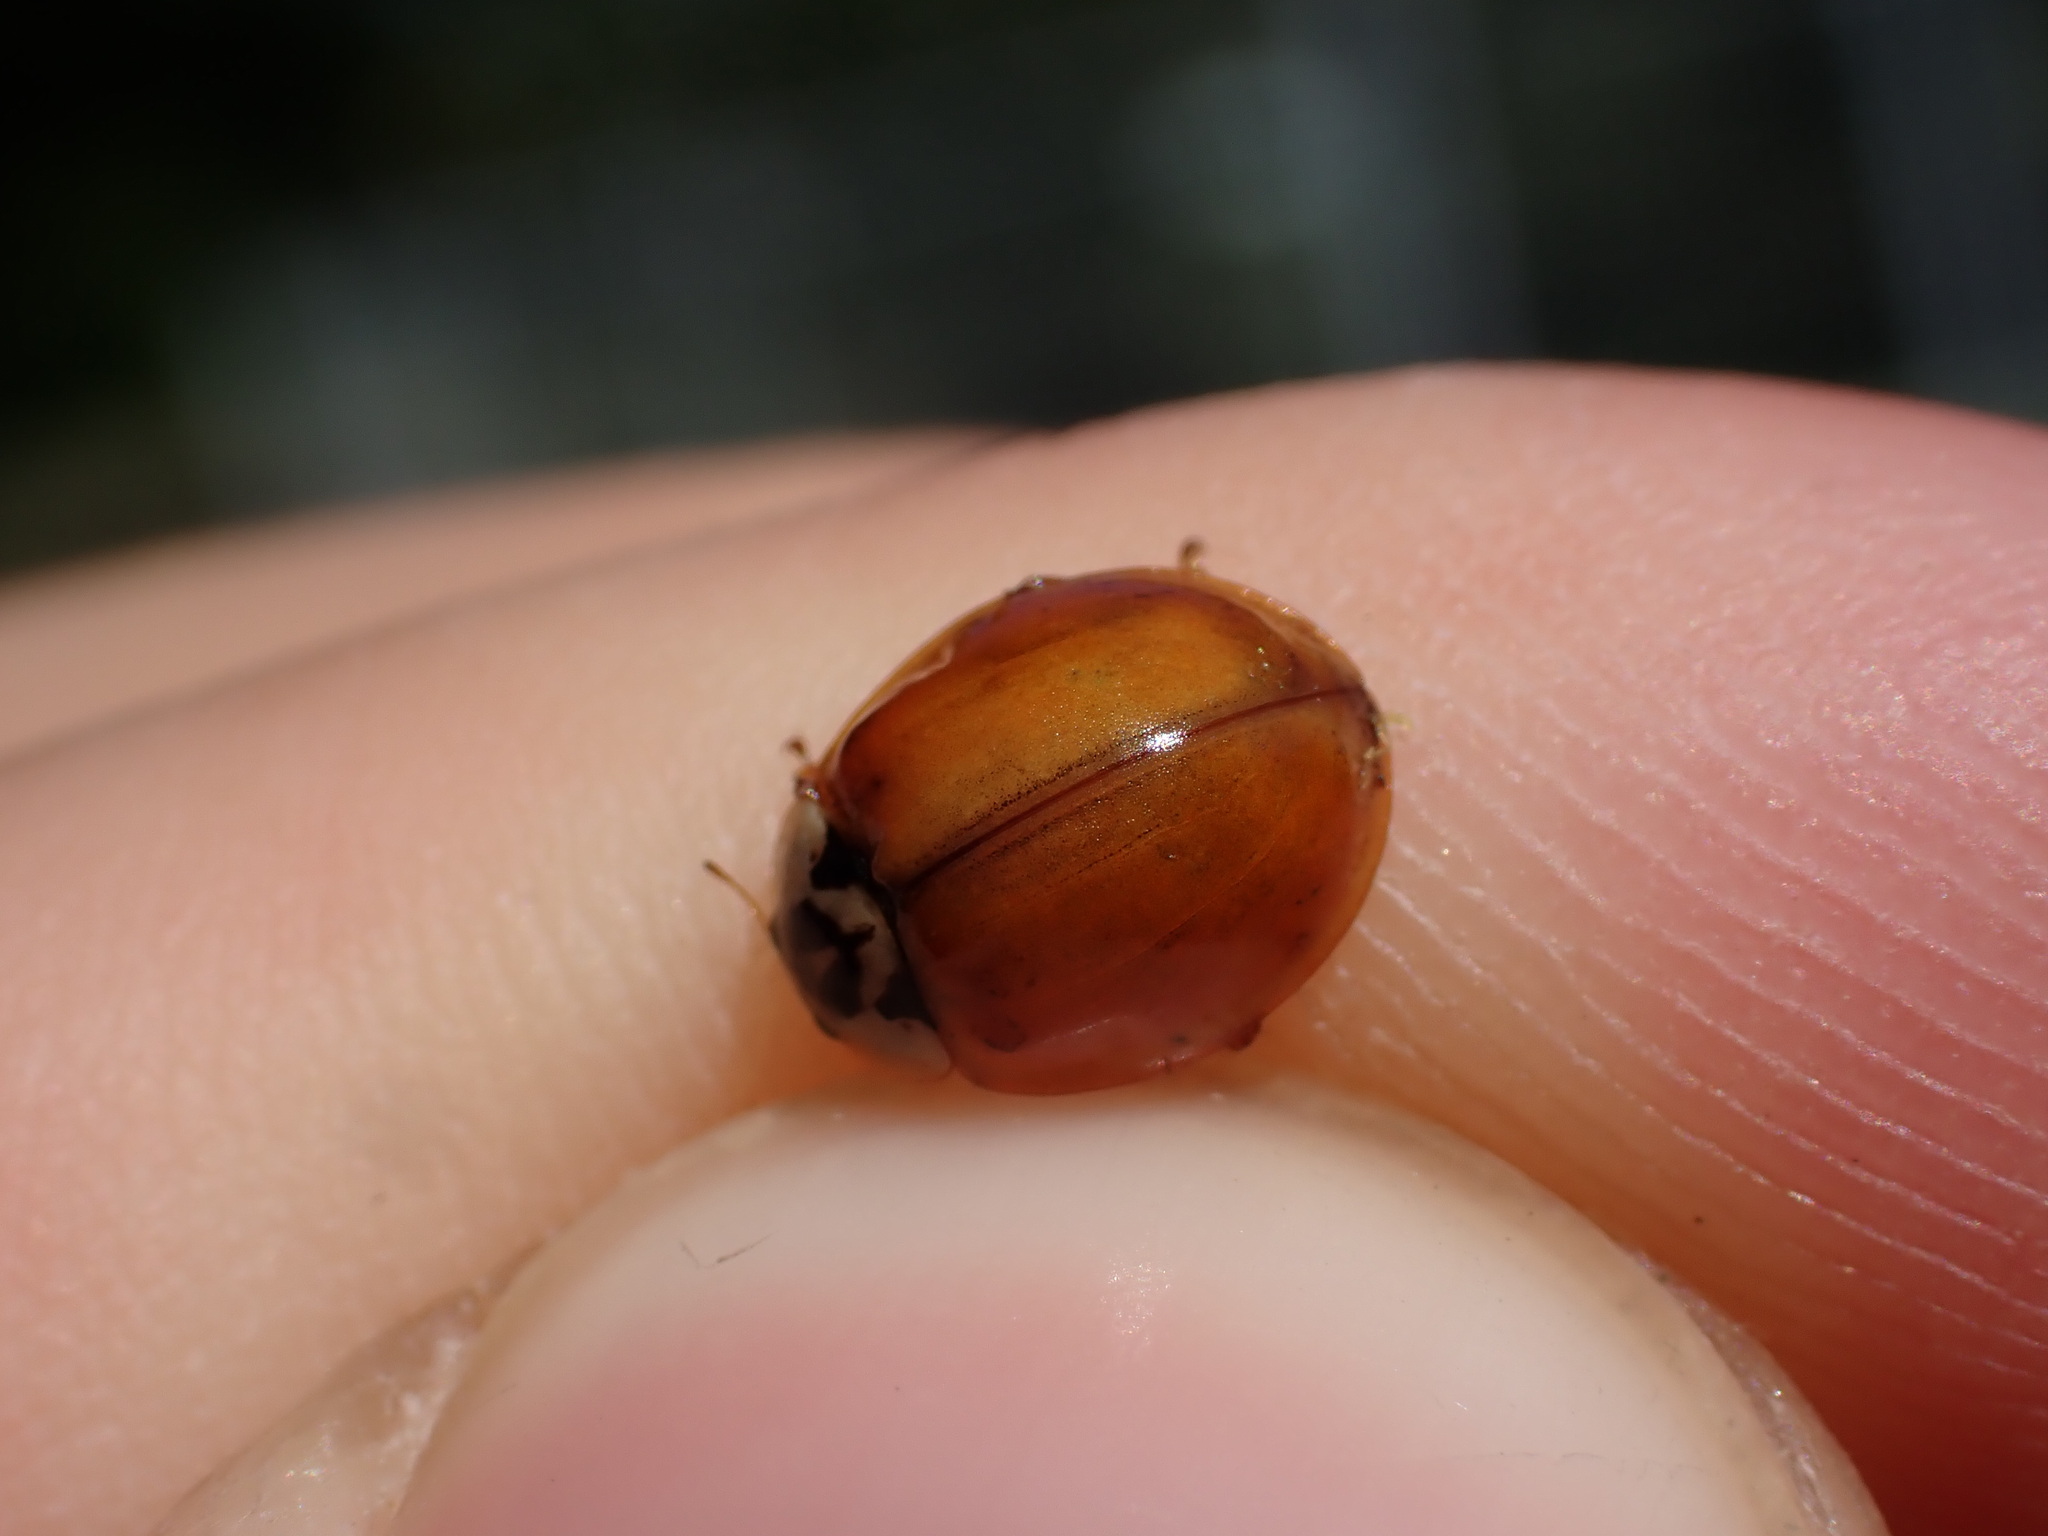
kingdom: Animalia
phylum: Arthropoda
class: Insecta
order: Coleoptera
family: Coccinellidae
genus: Harmonia
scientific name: Harmonia axyridis
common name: Harlequin ladybird
